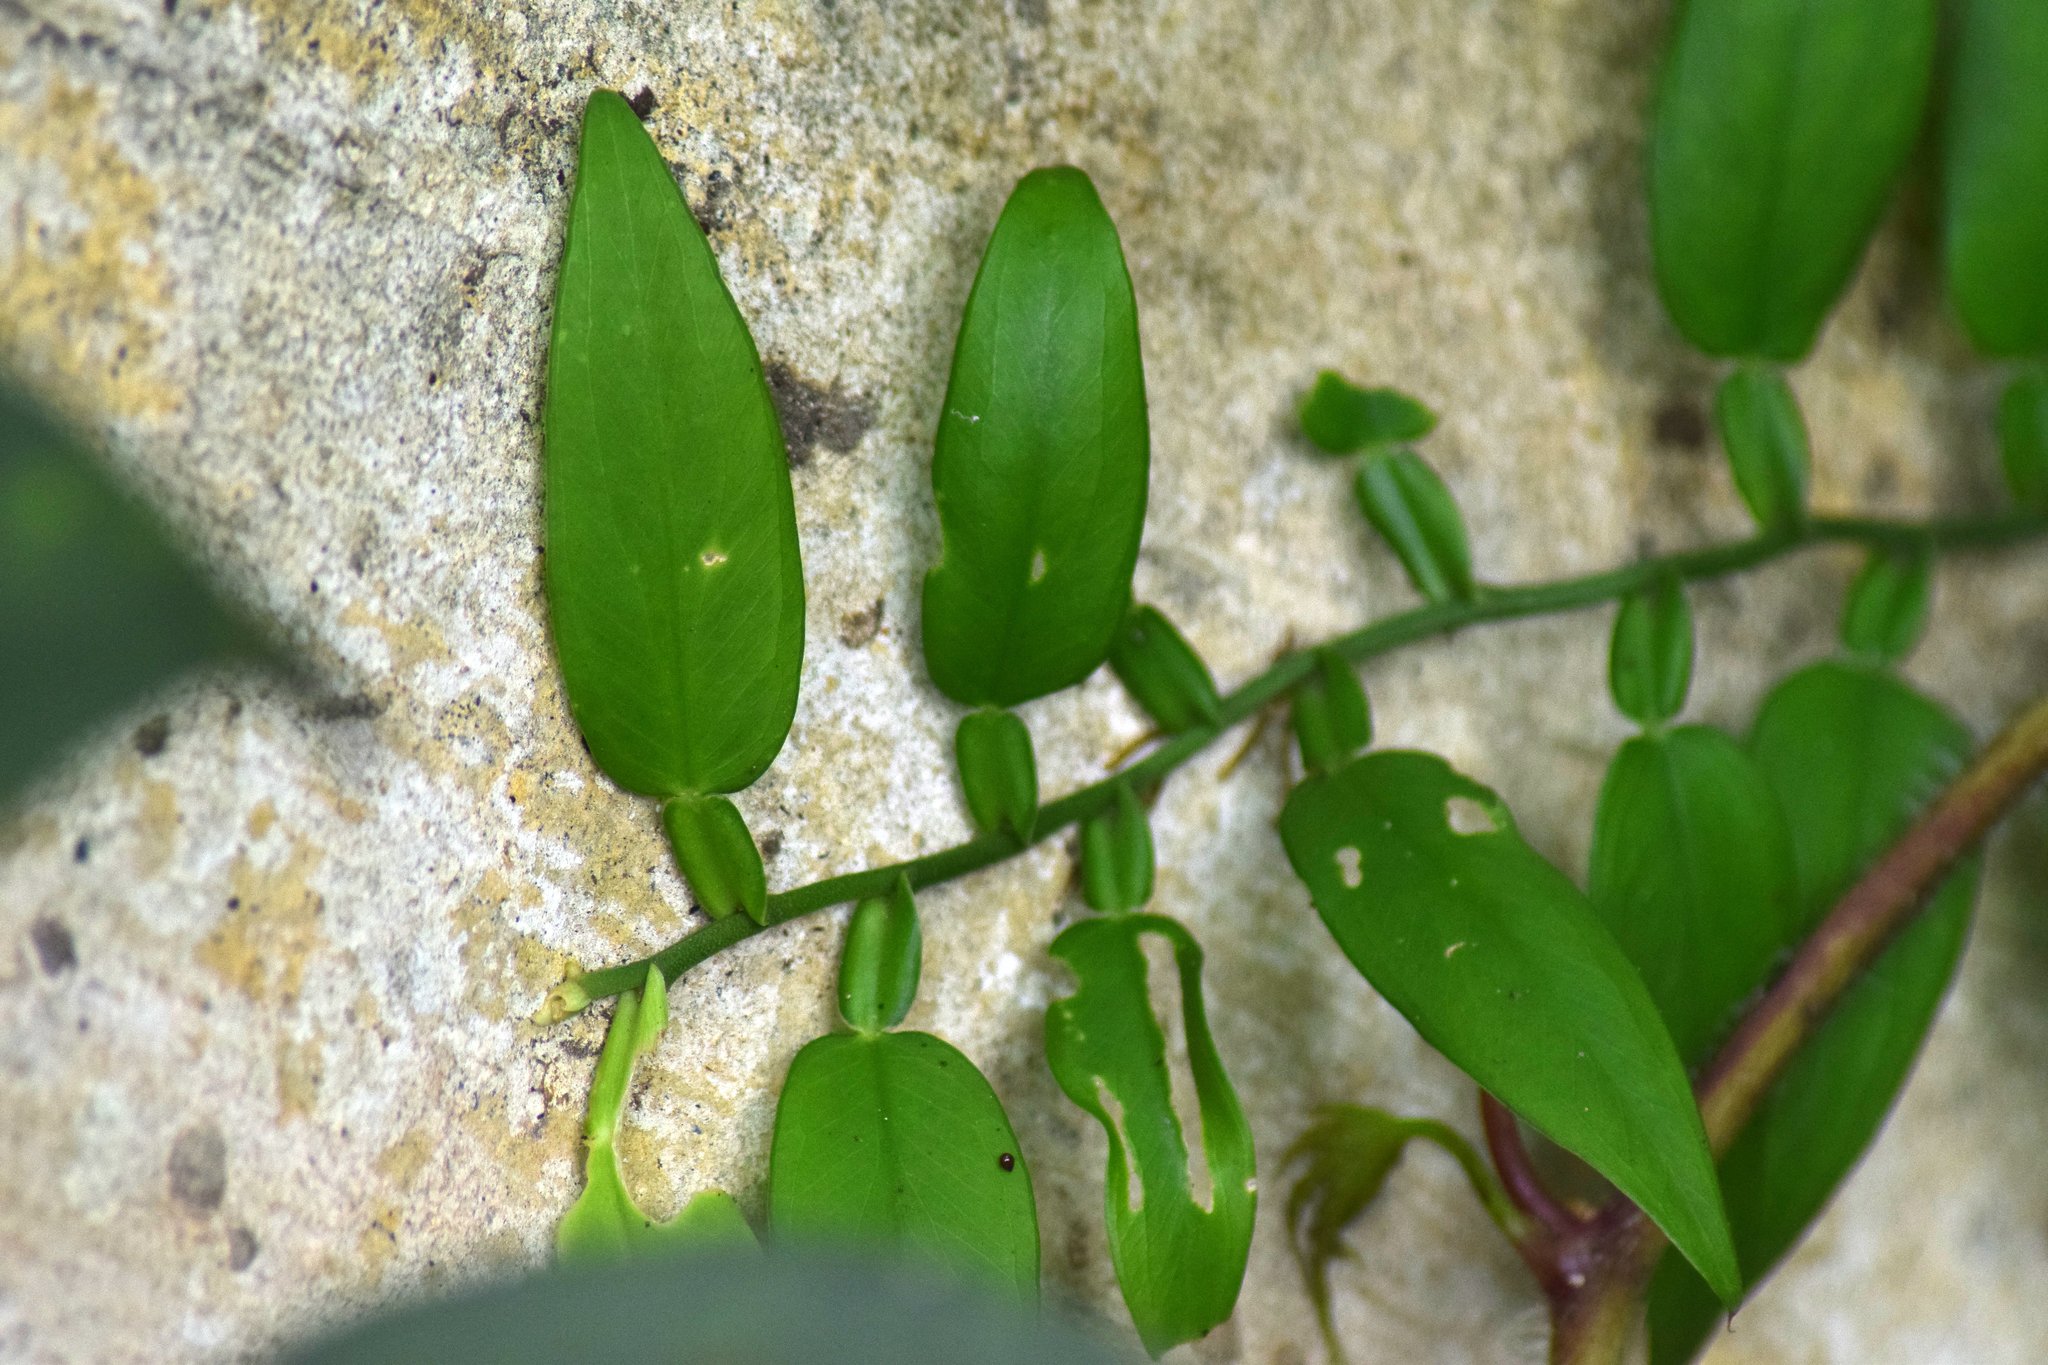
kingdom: Plantae
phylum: Tracheophyta
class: Liliopsida
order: Alismatales
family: Araceae
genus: Pothos
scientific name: Pothos scandens
